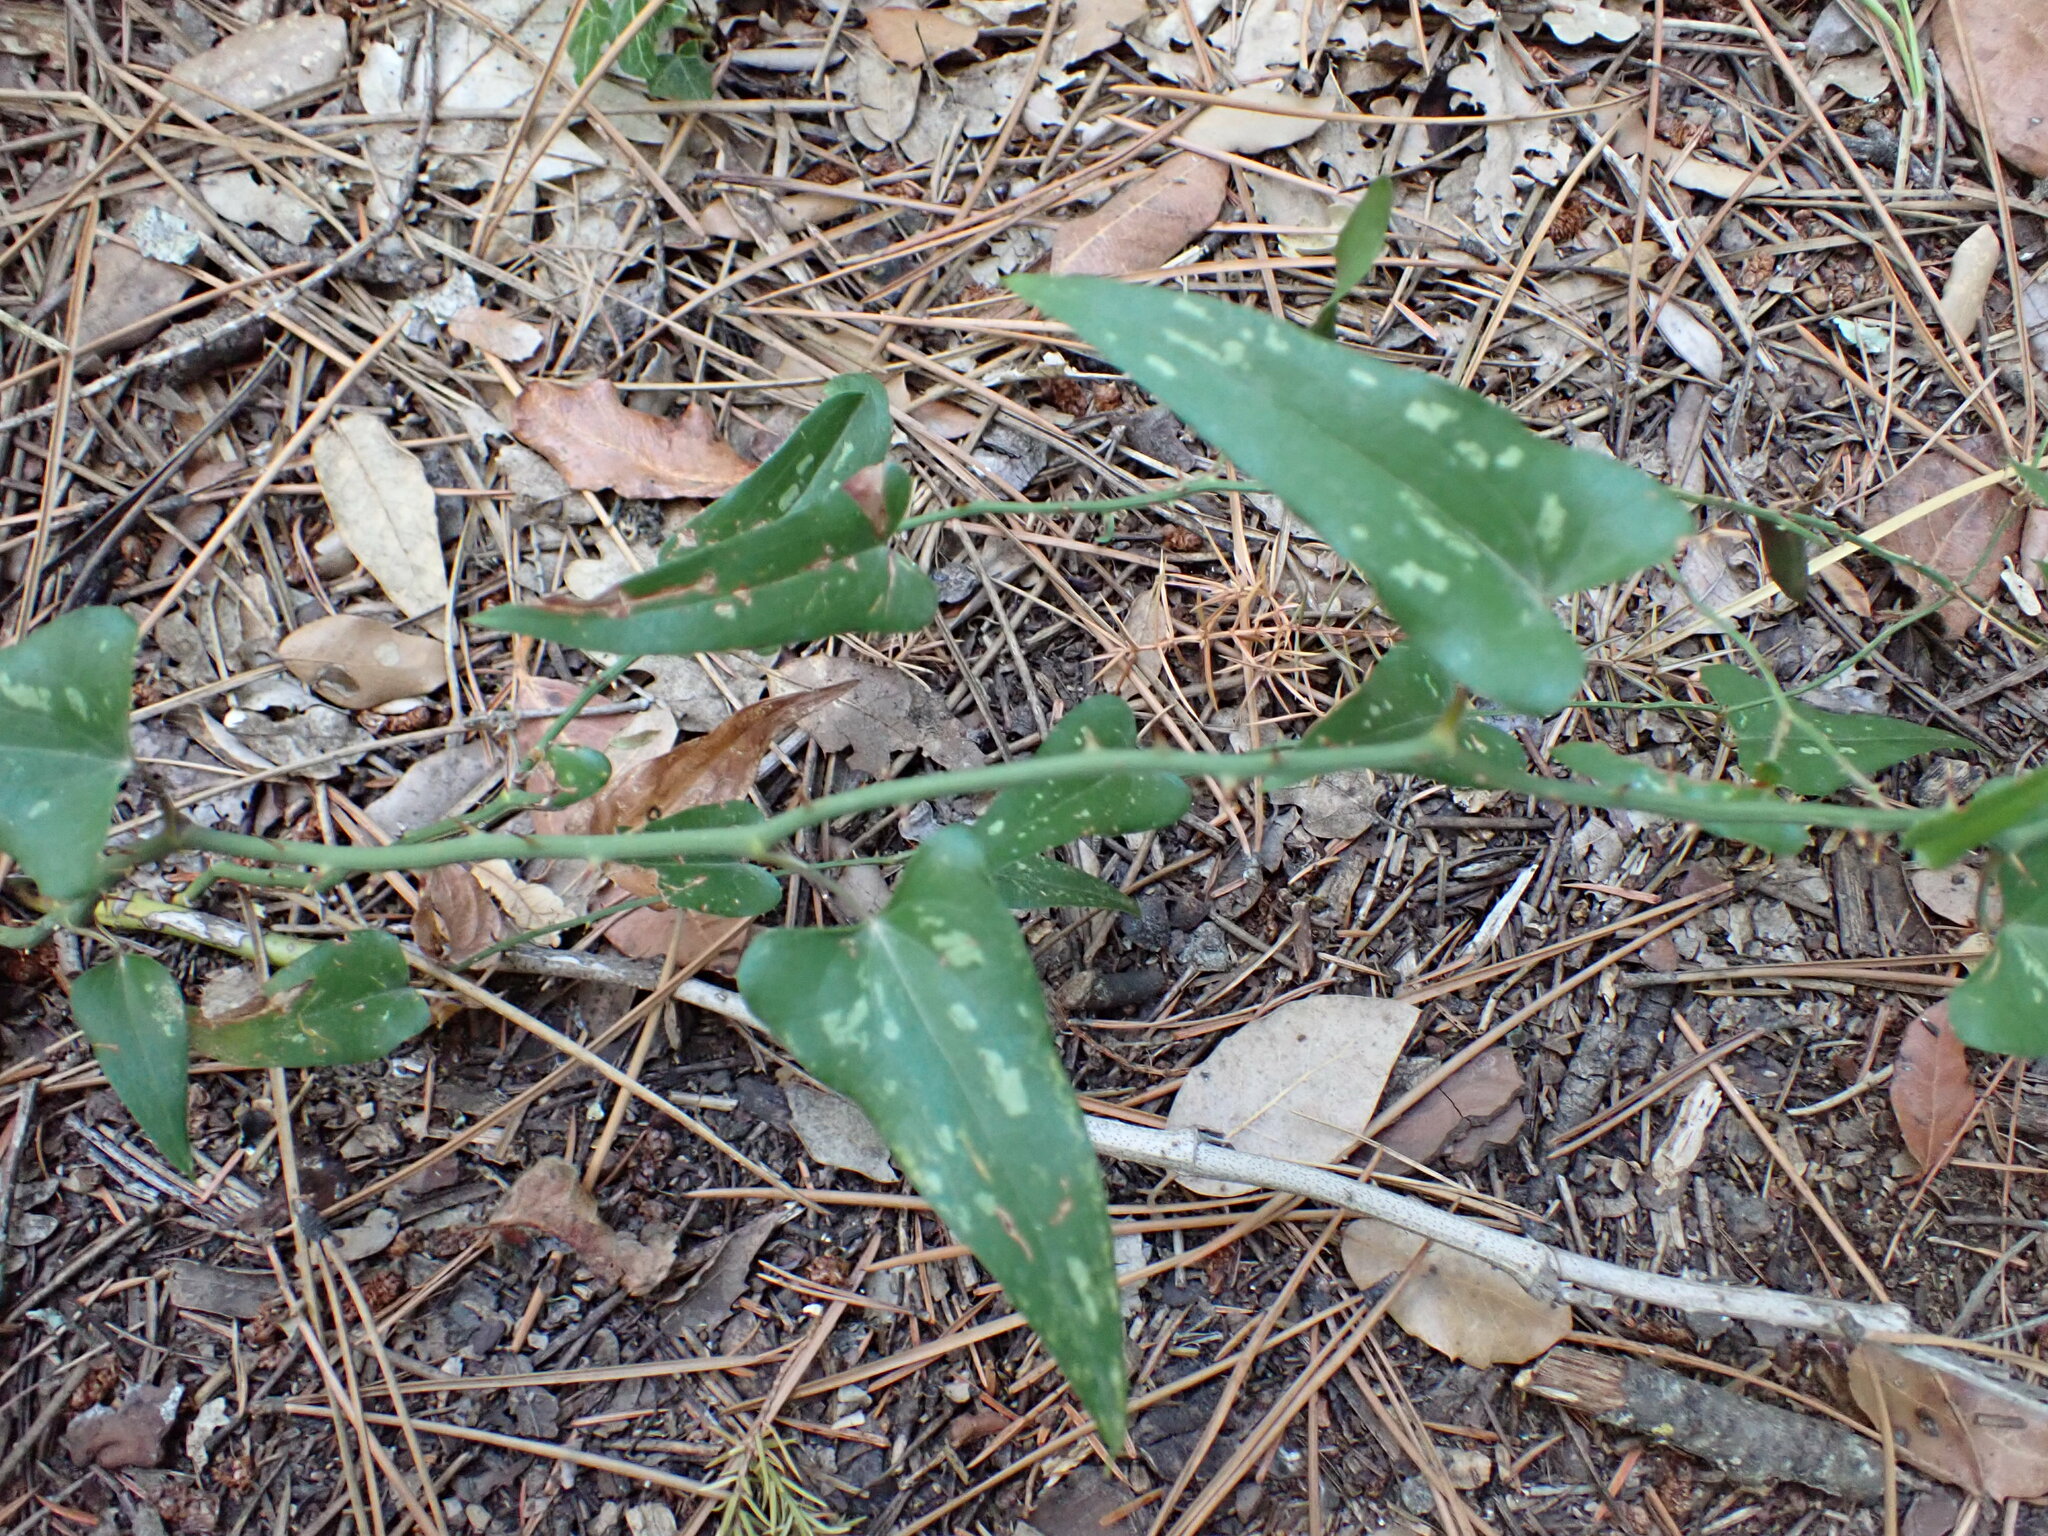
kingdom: Plantae
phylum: Tracheophyta
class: Liliopsida
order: Liliales
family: Smilacaceae
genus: Smilax
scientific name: Smilax aspera
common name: Common smilax
